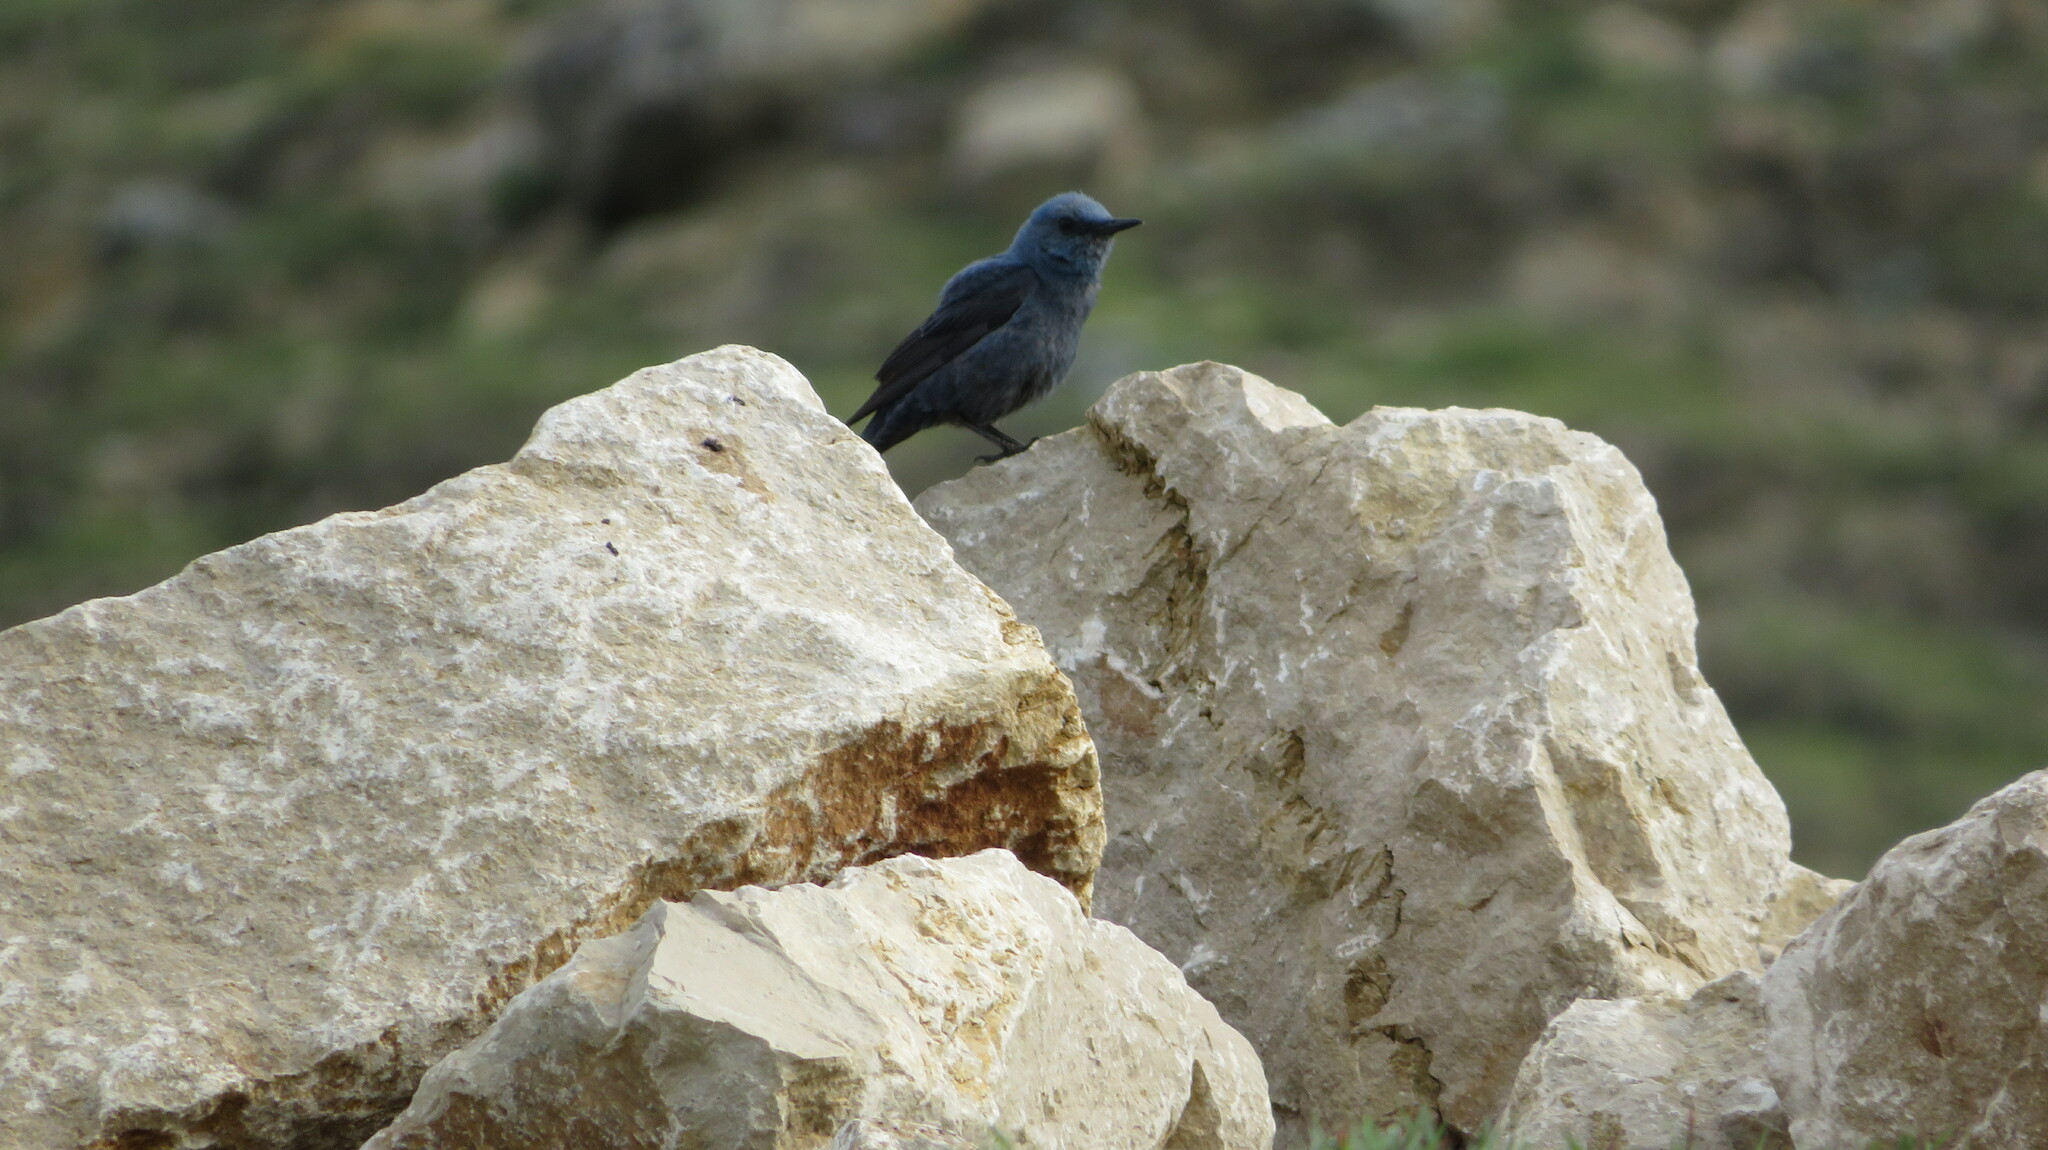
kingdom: Animalia
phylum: Chordata
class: Aves
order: Passeriformes
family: Muscicapidae
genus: Monticola
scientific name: Monticola solitarius
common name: Blue rock thrush
